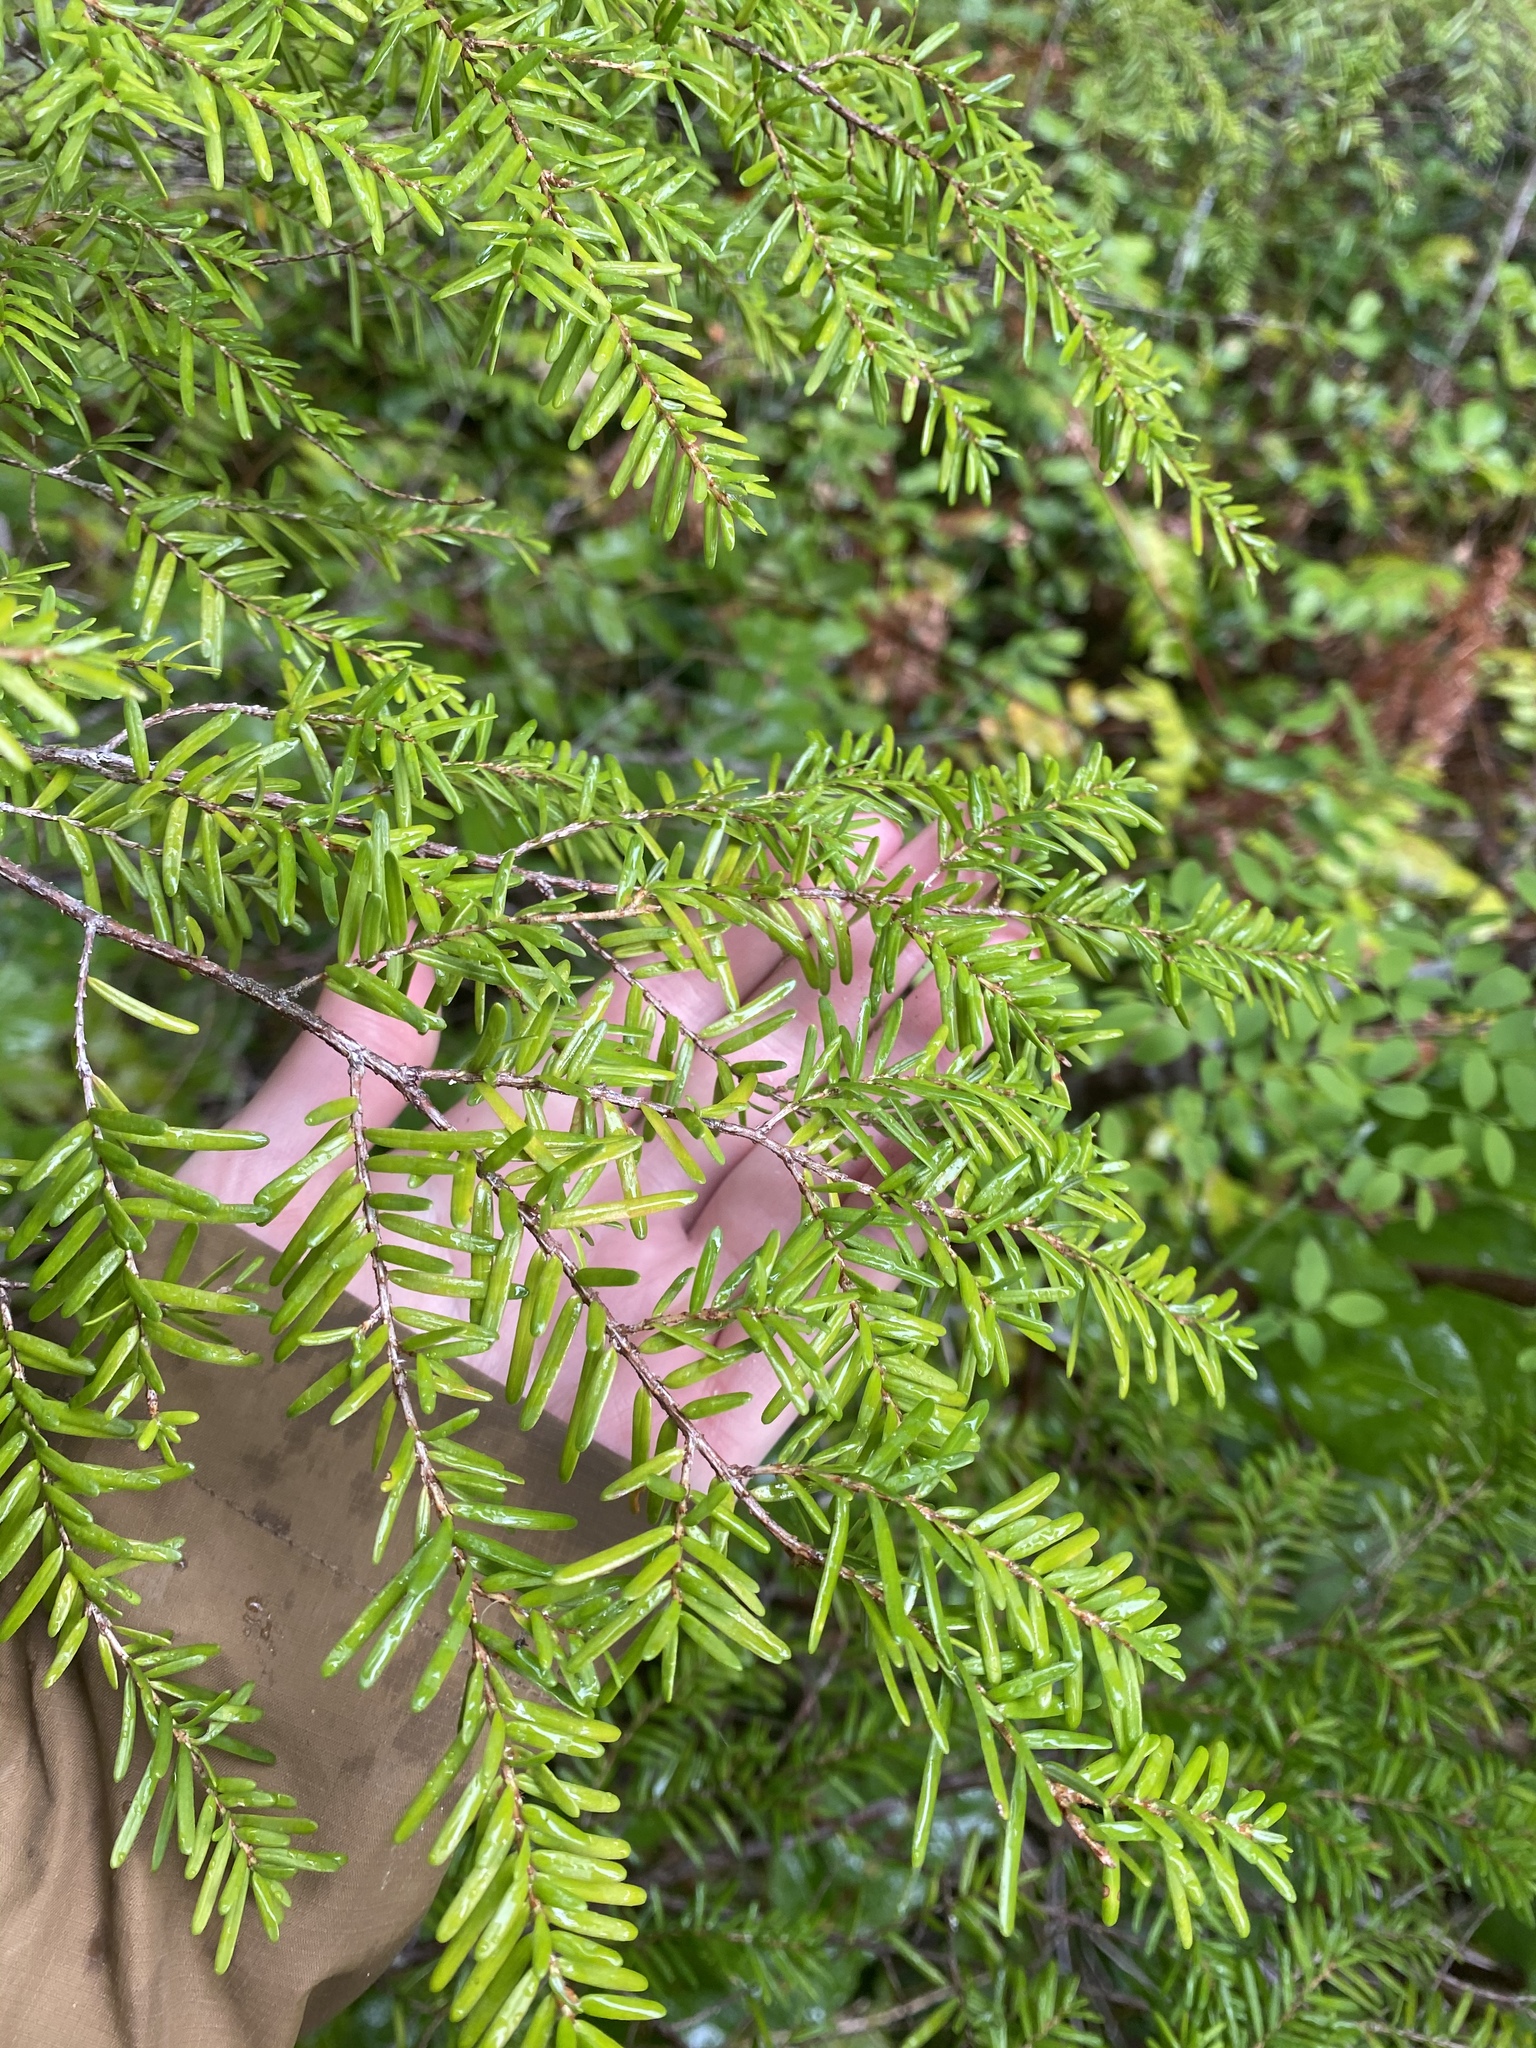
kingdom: Plantae
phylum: Tracheophyta
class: Pinopsida
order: Pinales
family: Pinaceae
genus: Tsuga
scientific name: Tsuga heterophylla
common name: Western hemlock
